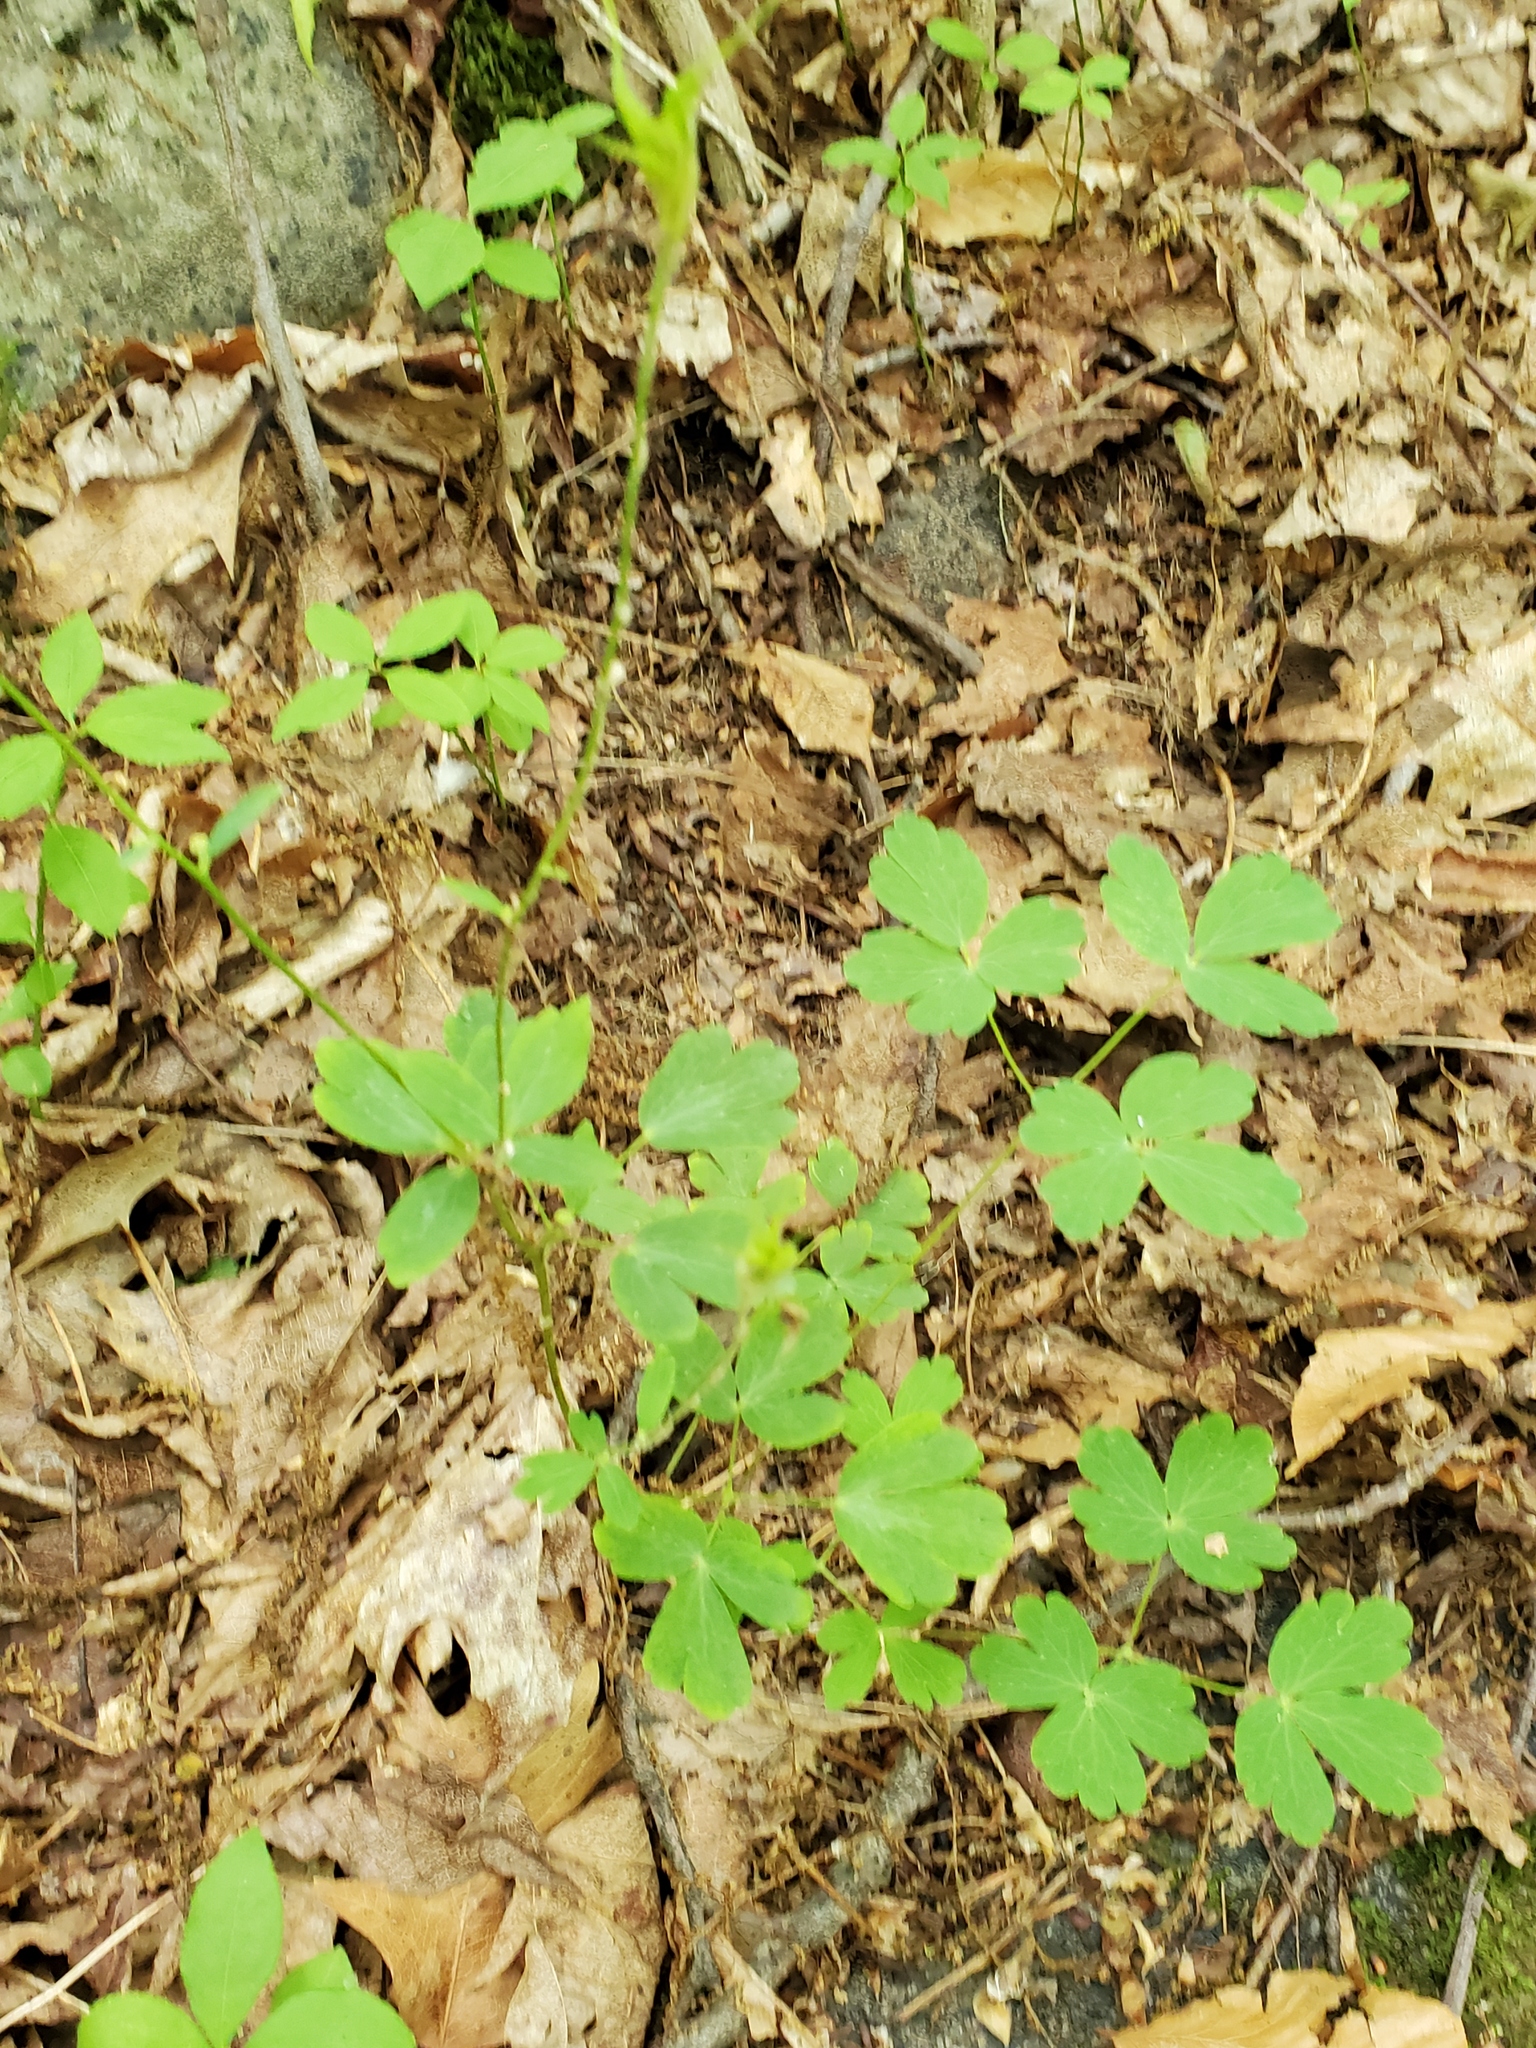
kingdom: Plantae
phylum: Tracheophyta
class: Magnoliopsida
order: Ranunculales
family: Ranunculaceae
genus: Aquilegia
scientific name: Aquilegia canadensis
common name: American columbine
